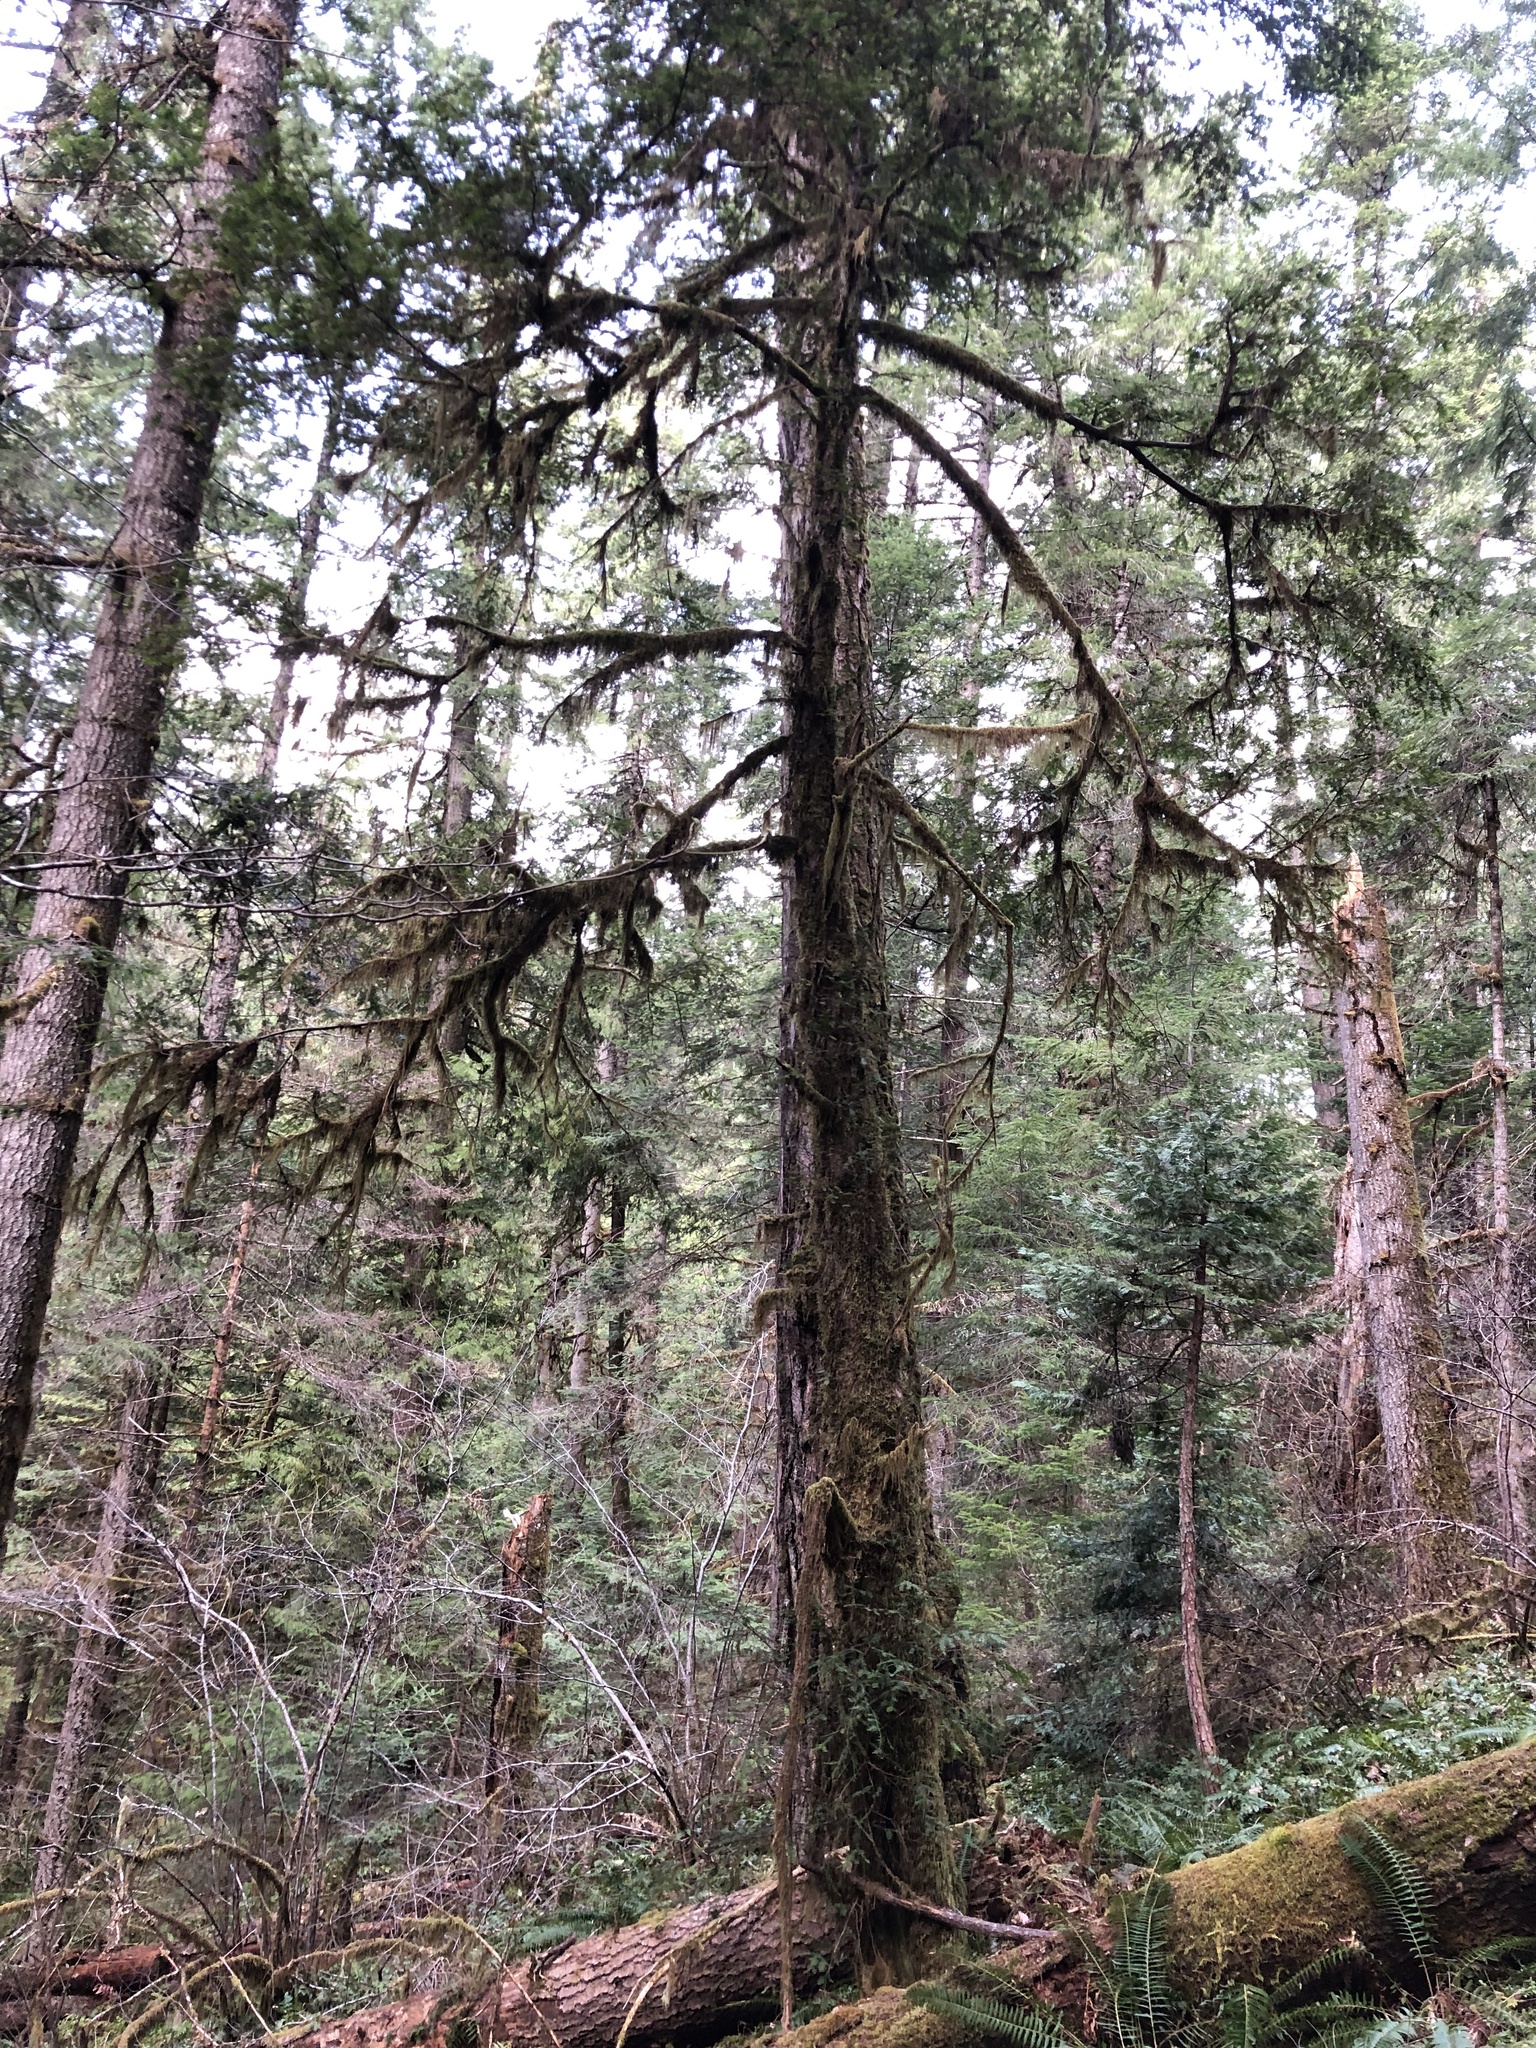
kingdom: Plantae
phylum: Tracheophyta
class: Pinopsida
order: Pinales
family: Taxaceae
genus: Taxus
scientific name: Taxus brevifolia
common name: Pacific yew
